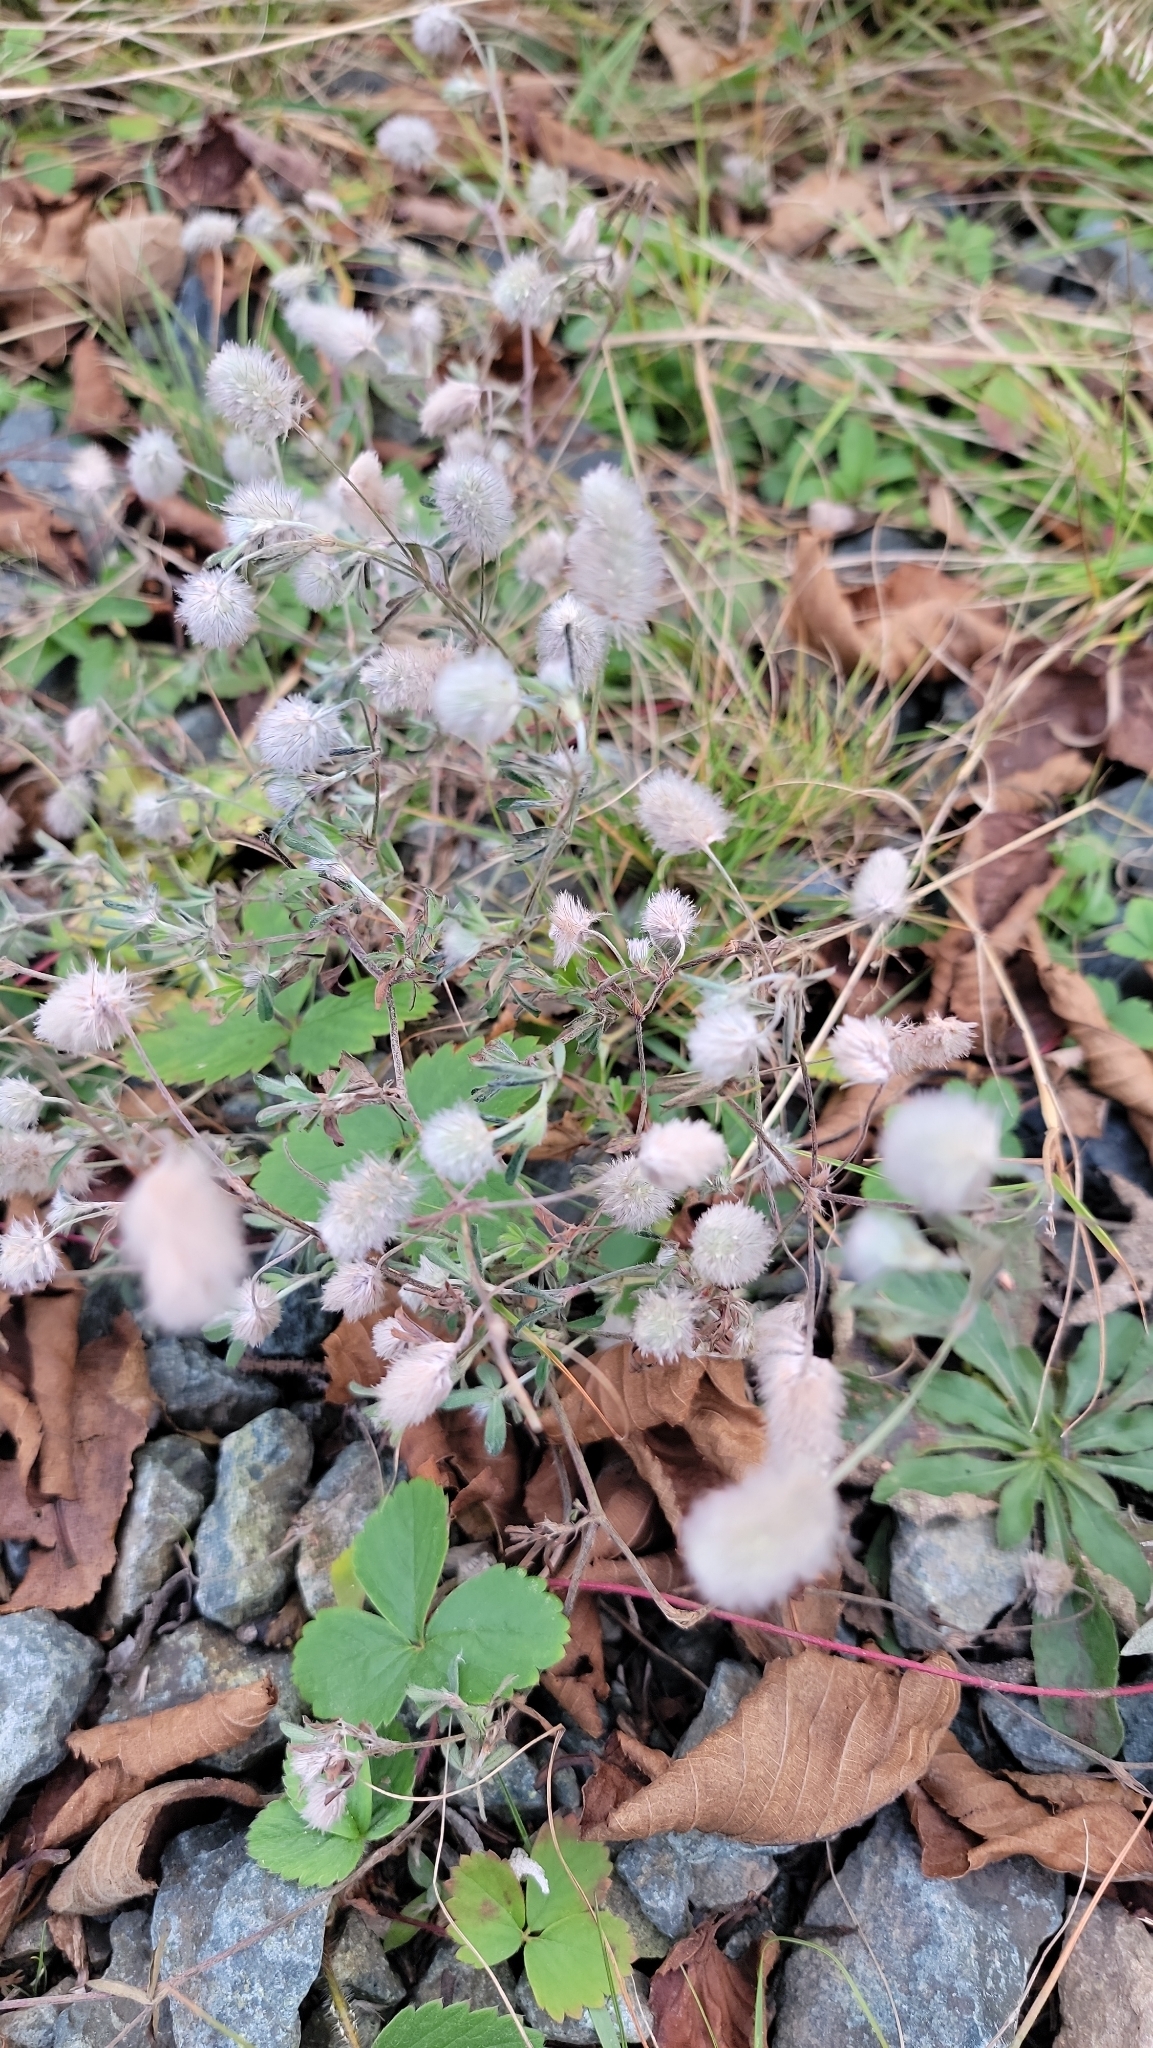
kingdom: Plantae
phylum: Tracheophyta
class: Magnoliopsida
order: Fabales
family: Fabaceae
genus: Trifolium
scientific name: Trifolium arvense
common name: Hare's-foot clover
